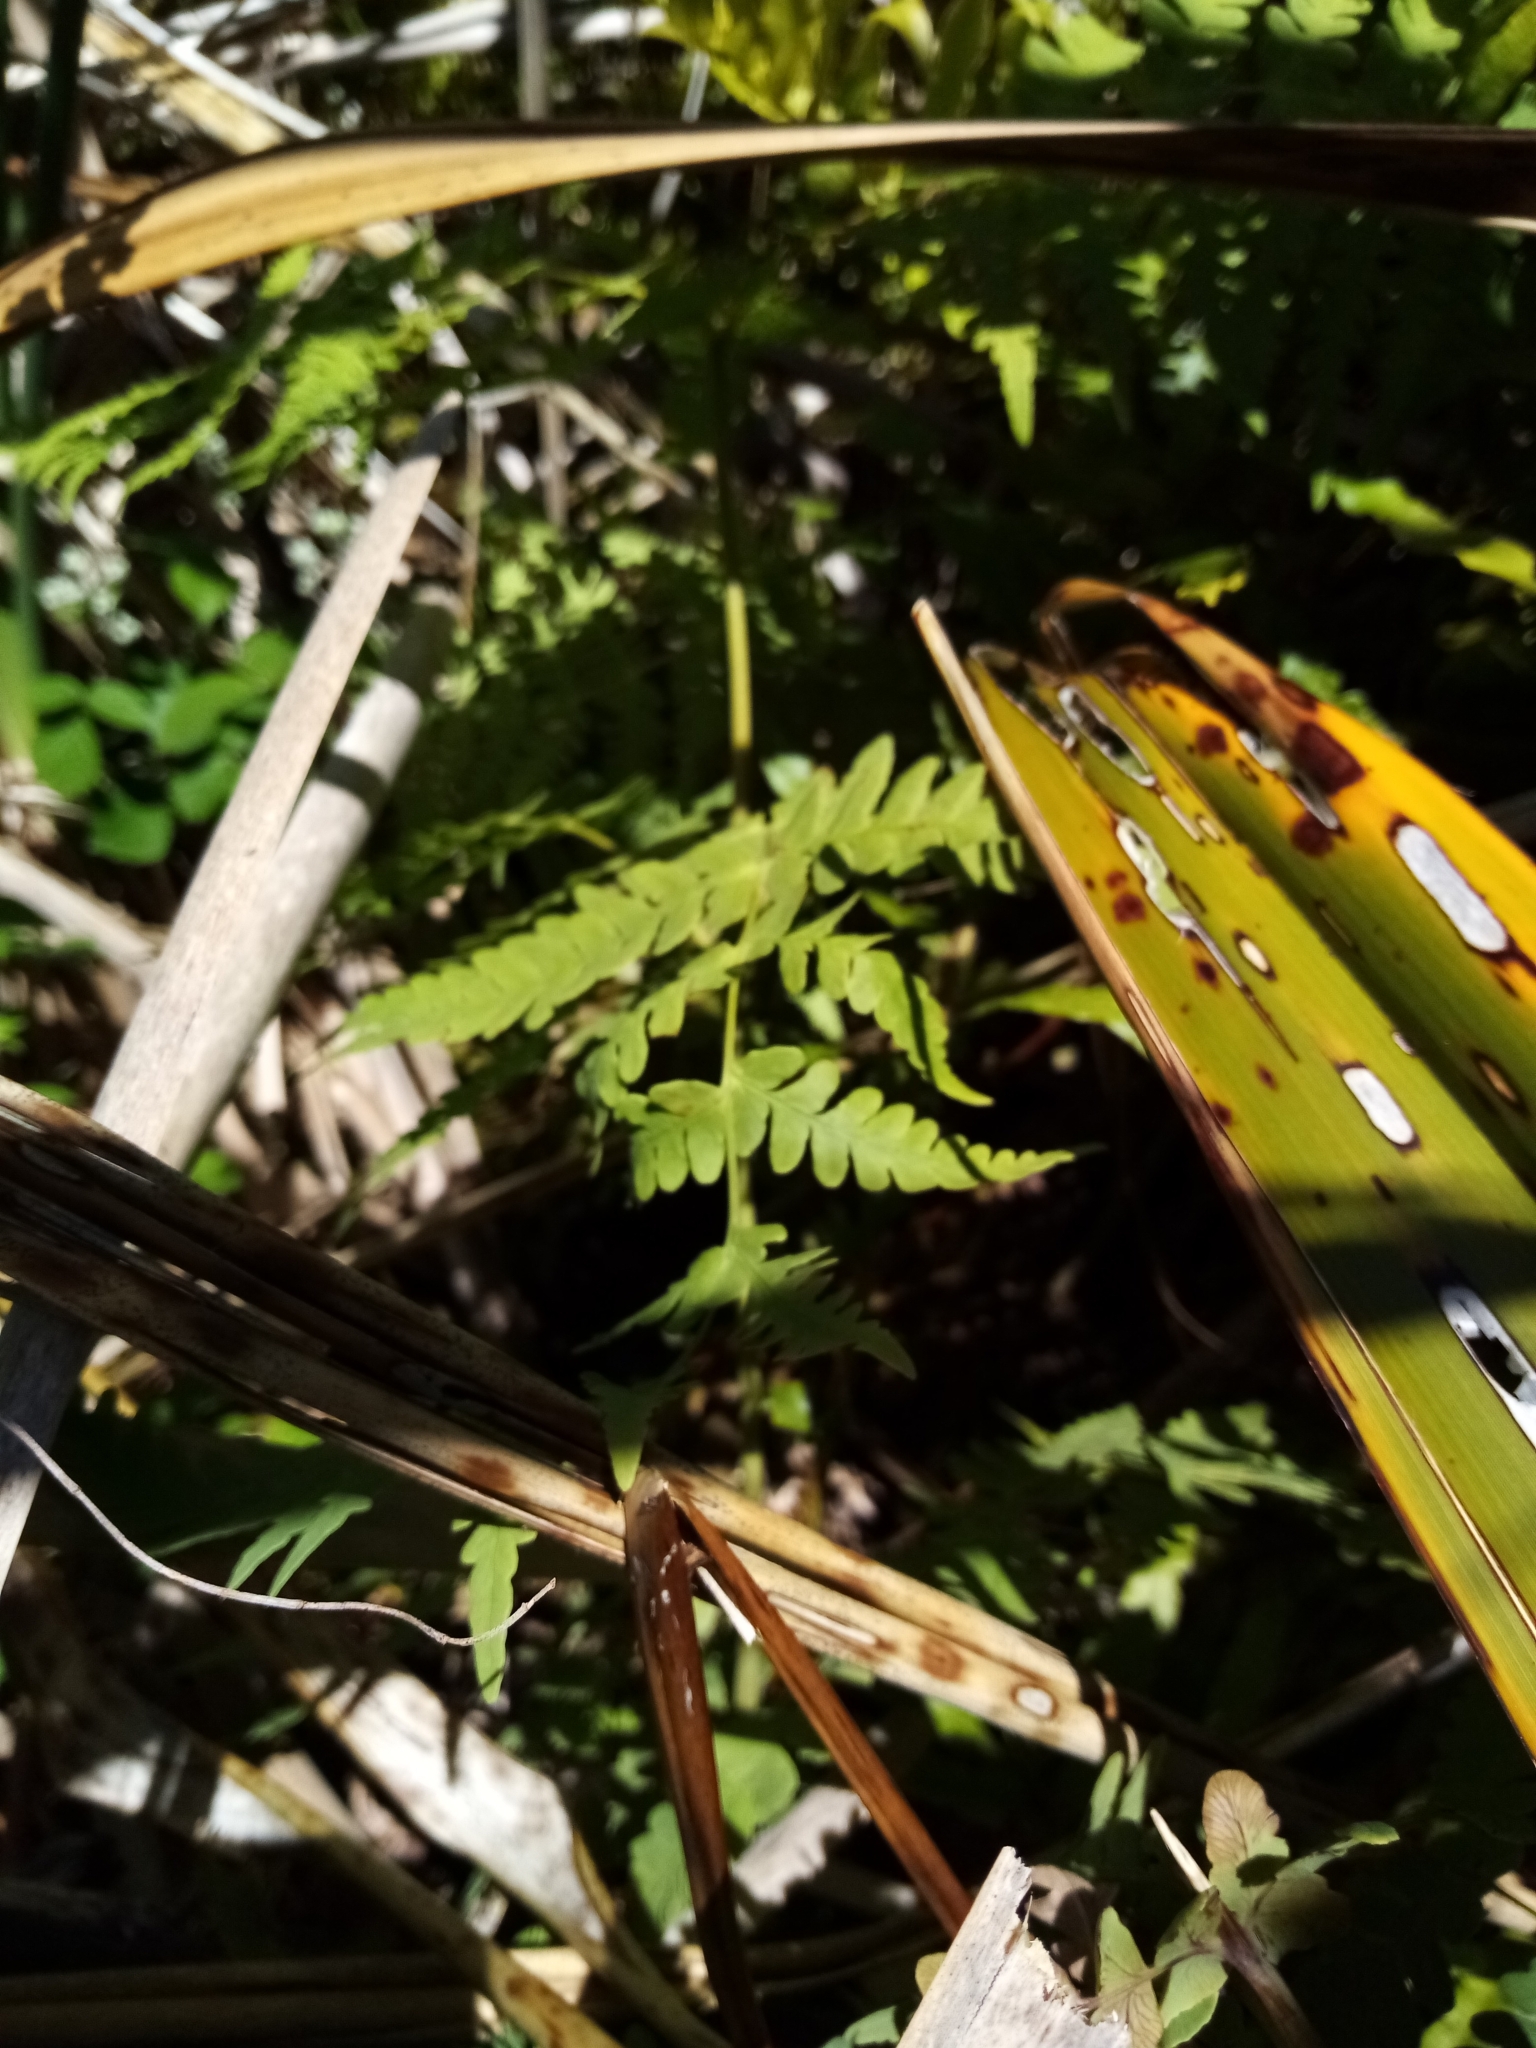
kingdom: Plantae
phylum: Tracheophyta
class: Polypodiopsida
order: Polypodiales
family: Dennstaedtiaceae
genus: Histiopteris
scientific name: Histiopteris incisa
